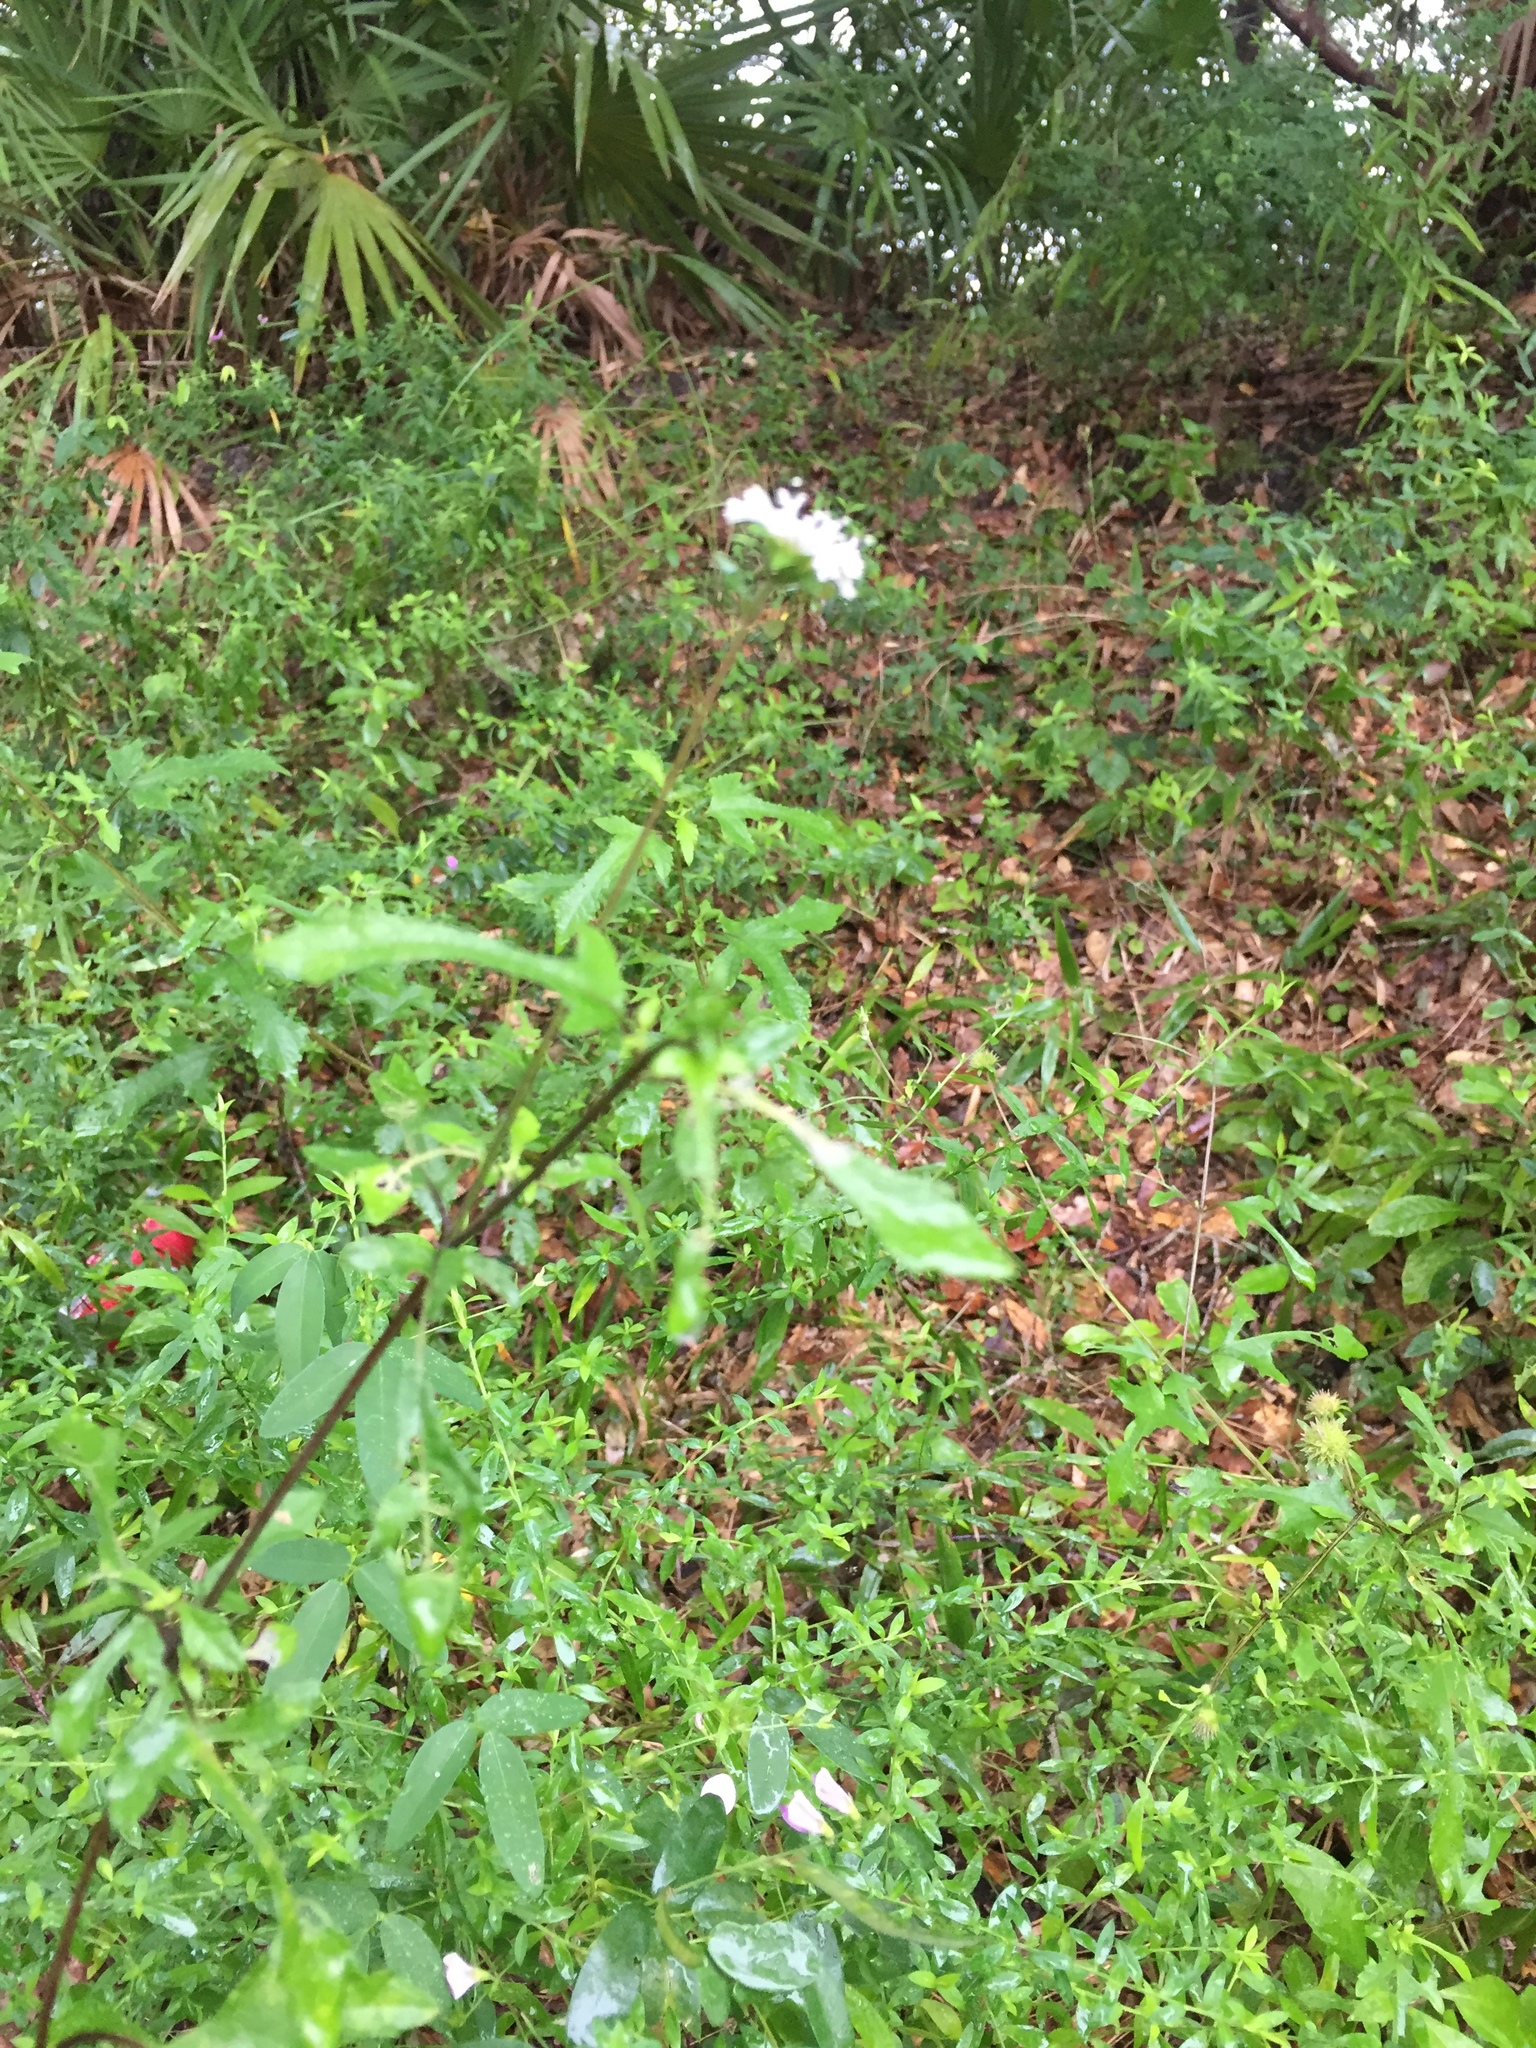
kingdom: Plantae
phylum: Tracheophyta
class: Magnoliopsida
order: Asterales
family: Asteraceae
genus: Melanthera
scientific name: Melanthera nivea
